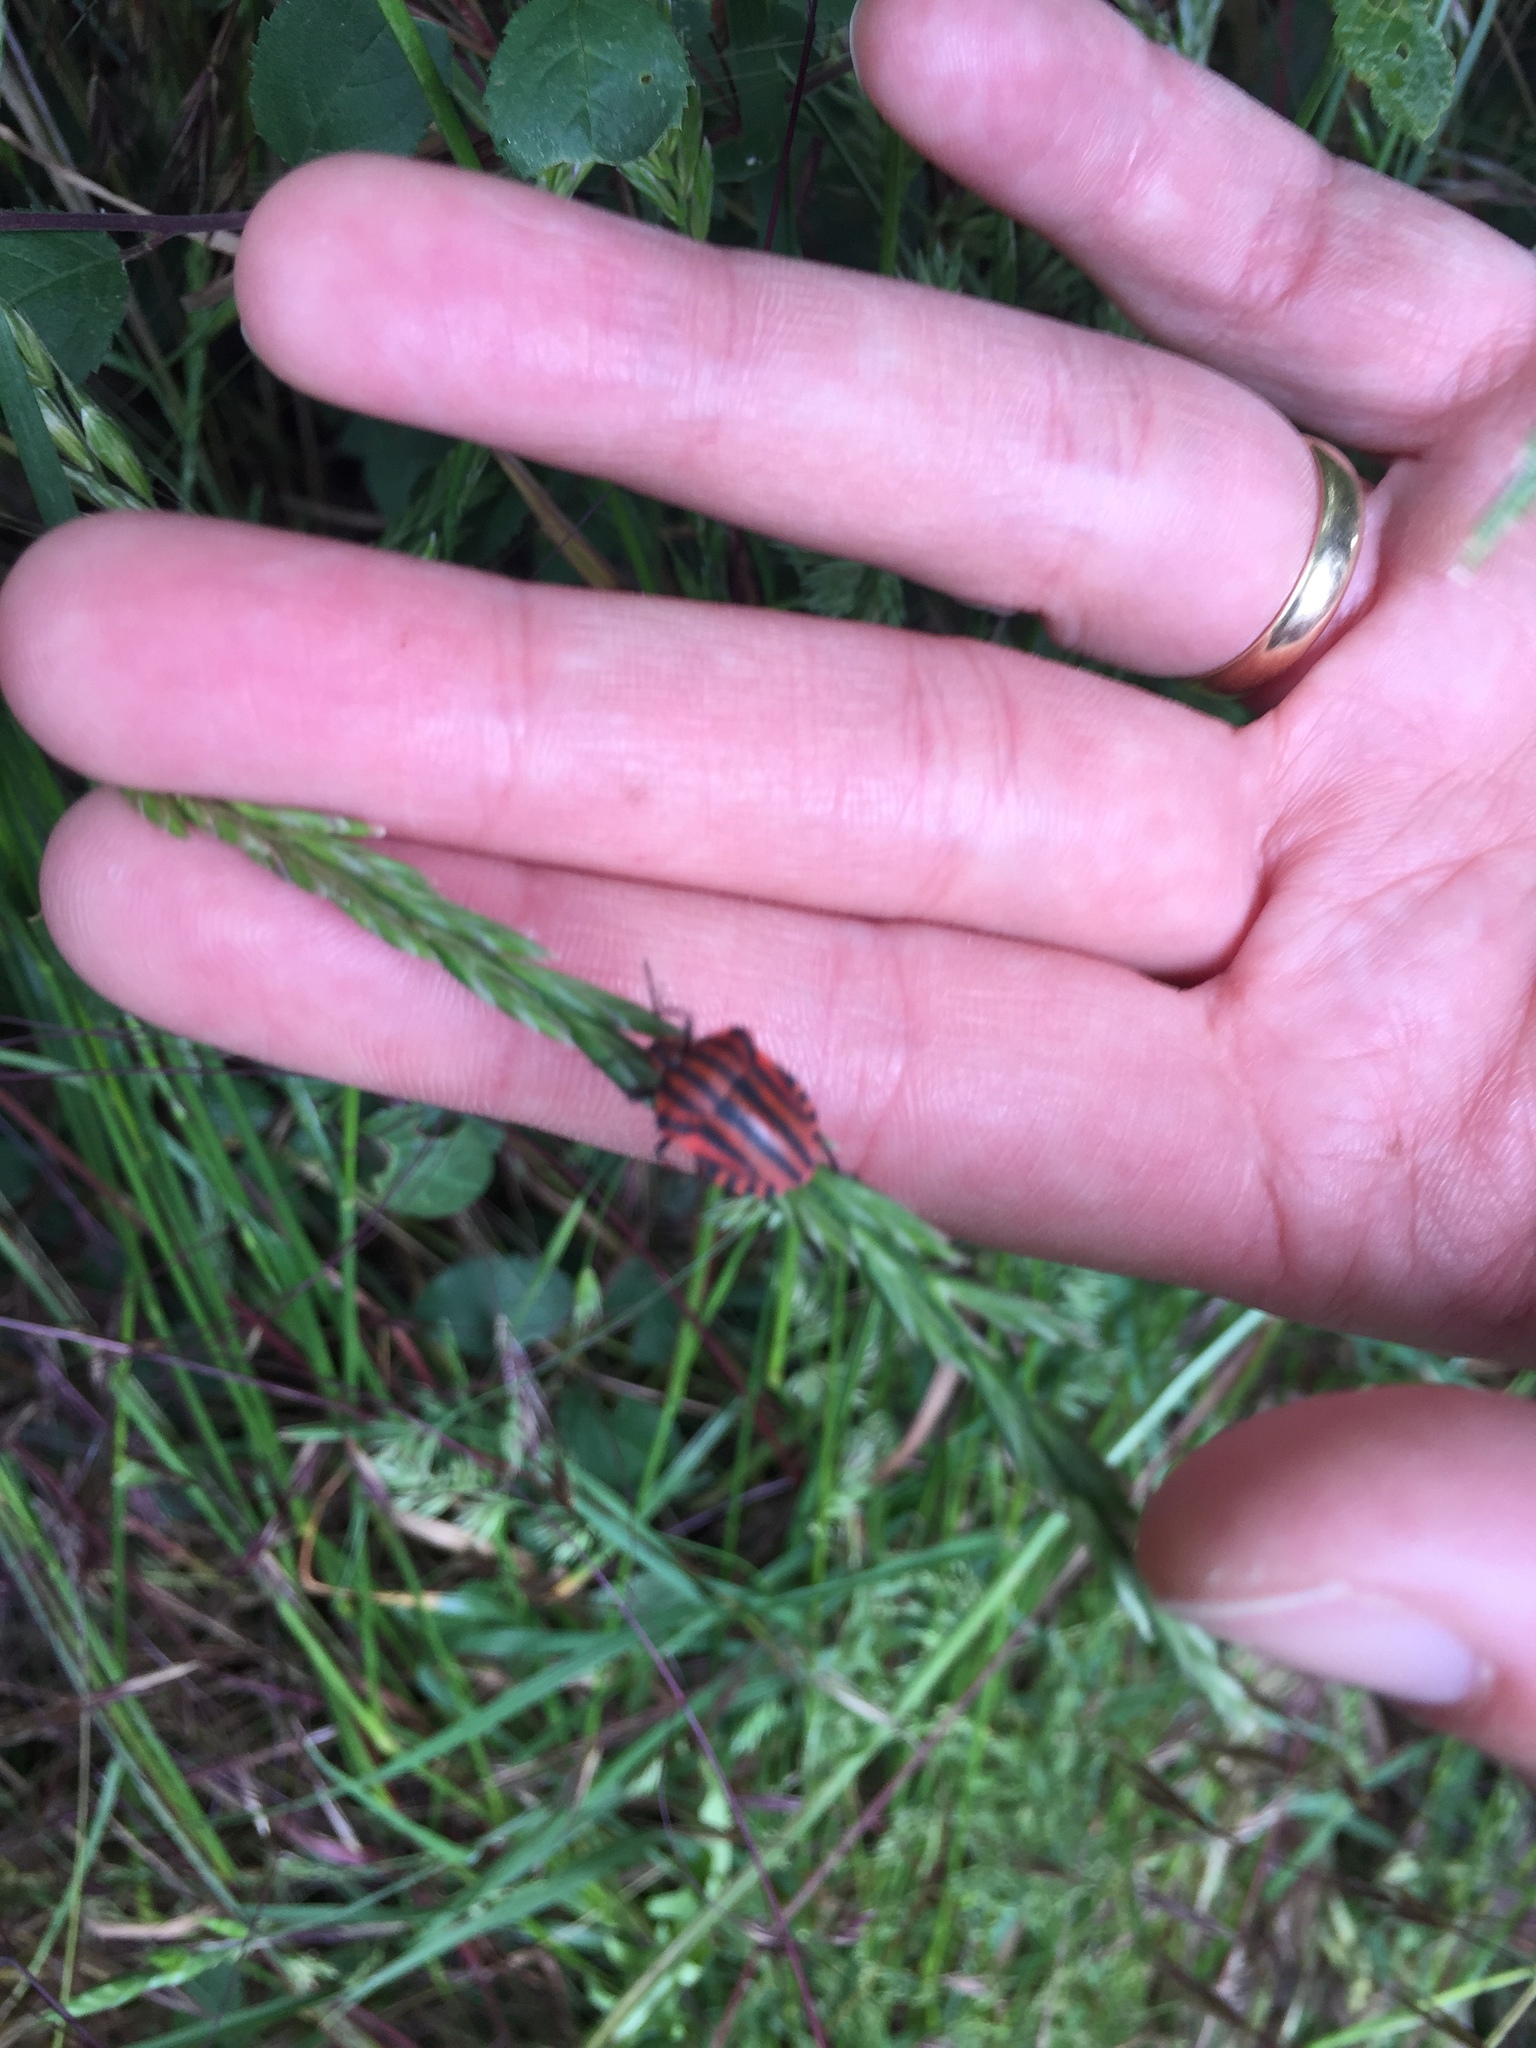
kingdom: Animalia
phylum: Arthropoda
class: Insecta
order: Hemiptera
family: Pentatomidae
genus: Graphosoma
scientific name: Graphosoma italicum
